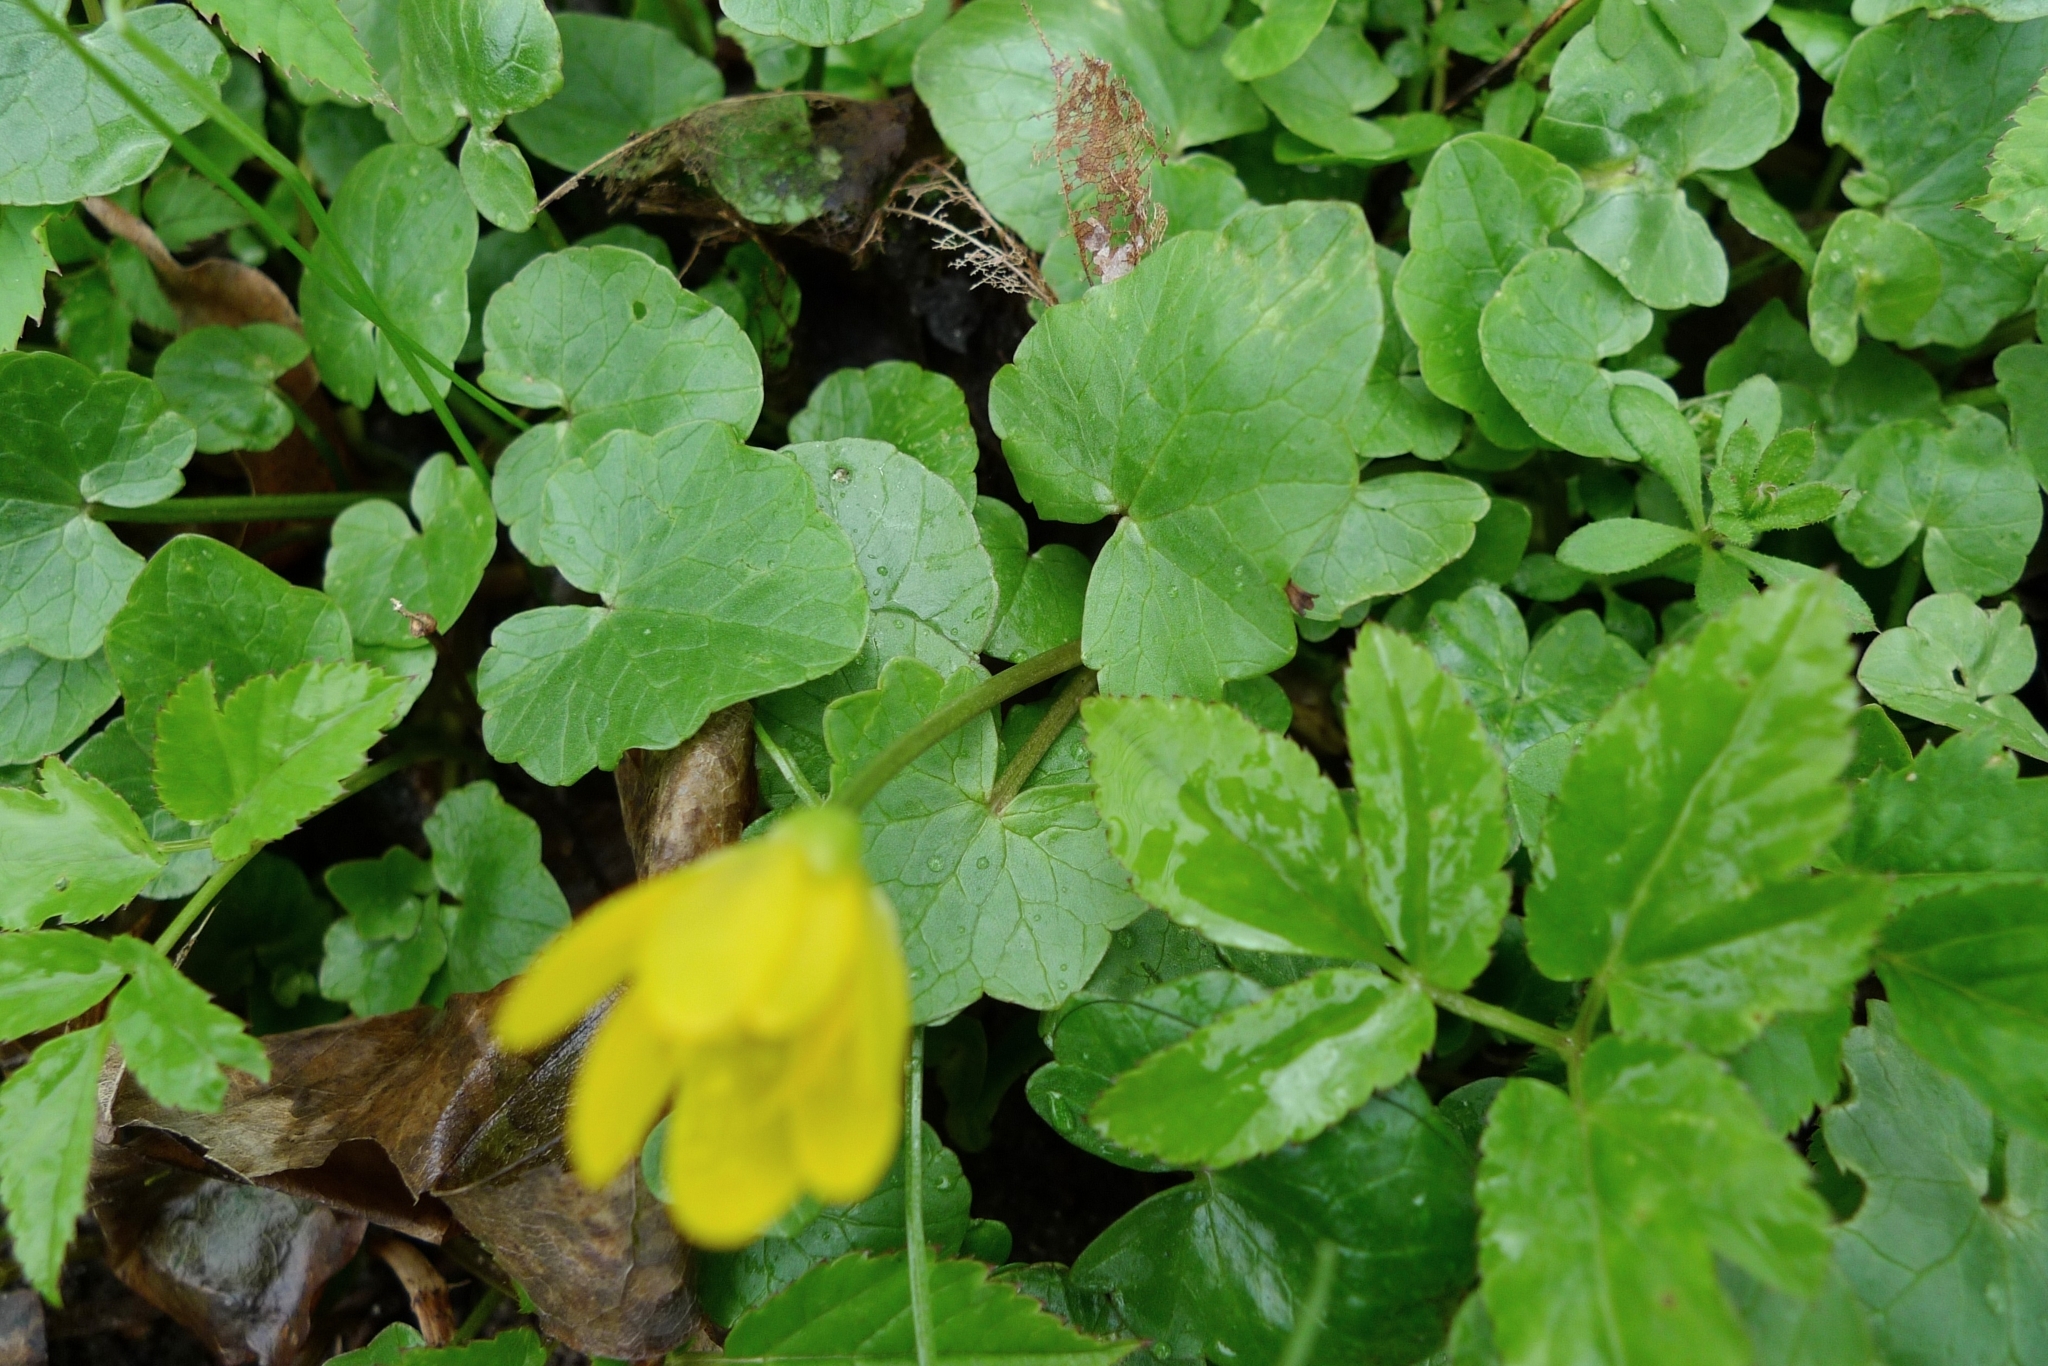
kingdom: Plantae
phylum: Tracheophyta
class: Magnoliopsida
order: Ranunculales
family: Ranunculaceae
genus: Ficaria
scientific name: Ficaria verna
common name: Lesser celandine
